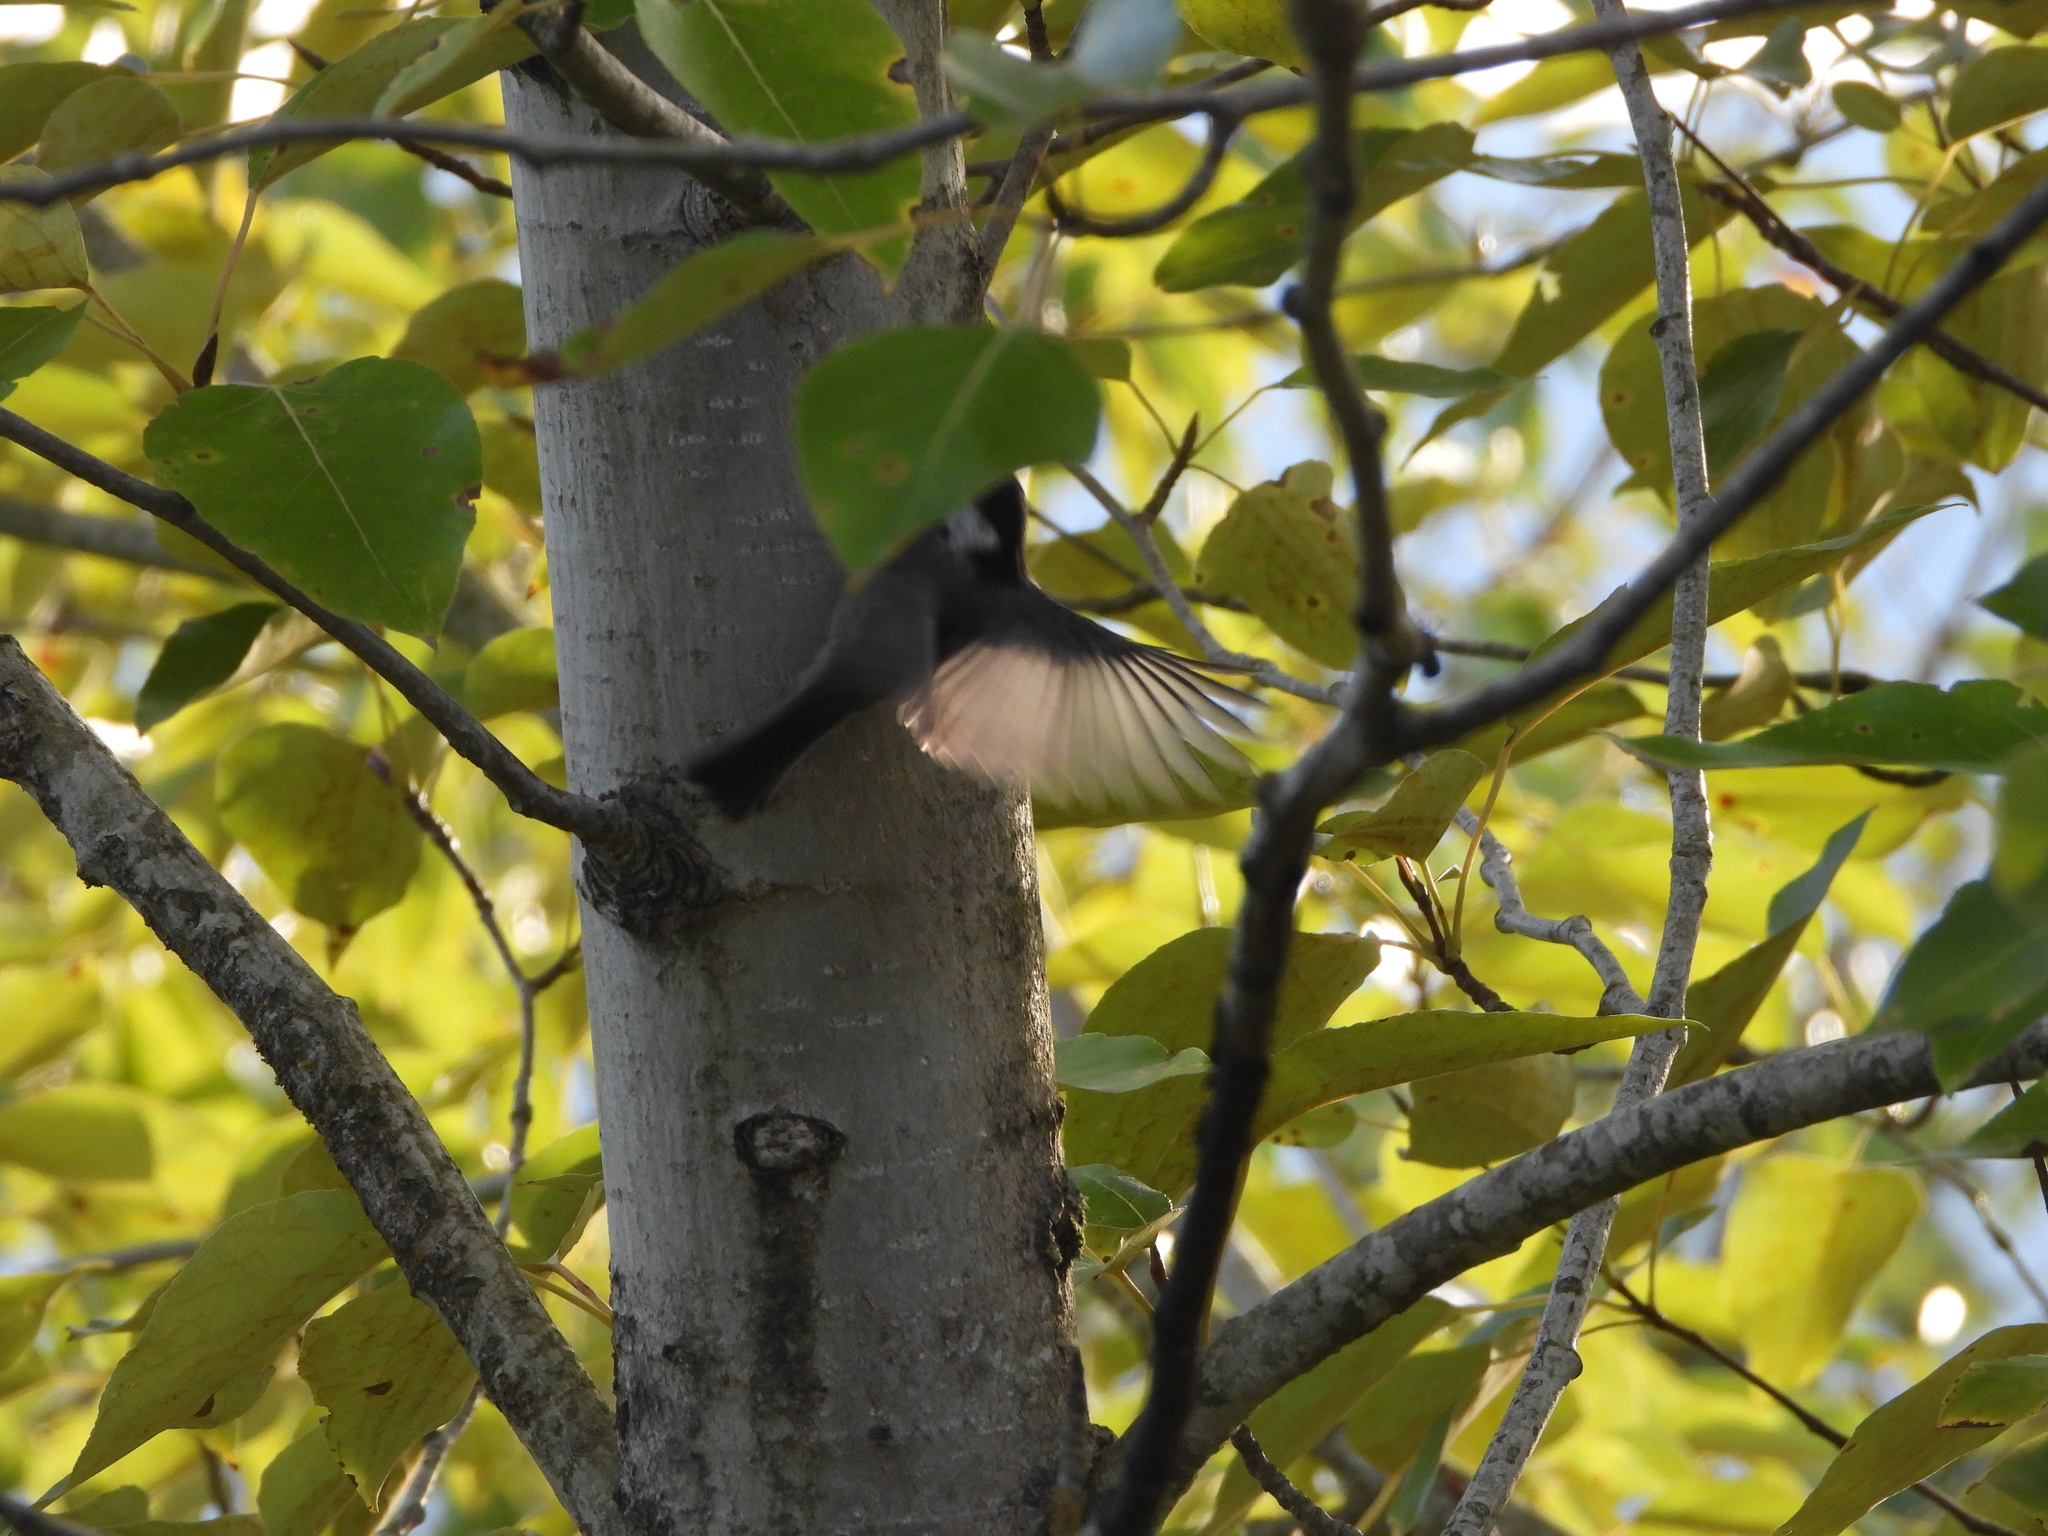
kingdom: Animalia
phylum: Chordata
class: Aves
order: Passeriformes
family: Paridae
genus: Poecile
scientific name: Poecile atricapillus
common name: Black-capped chickadee
